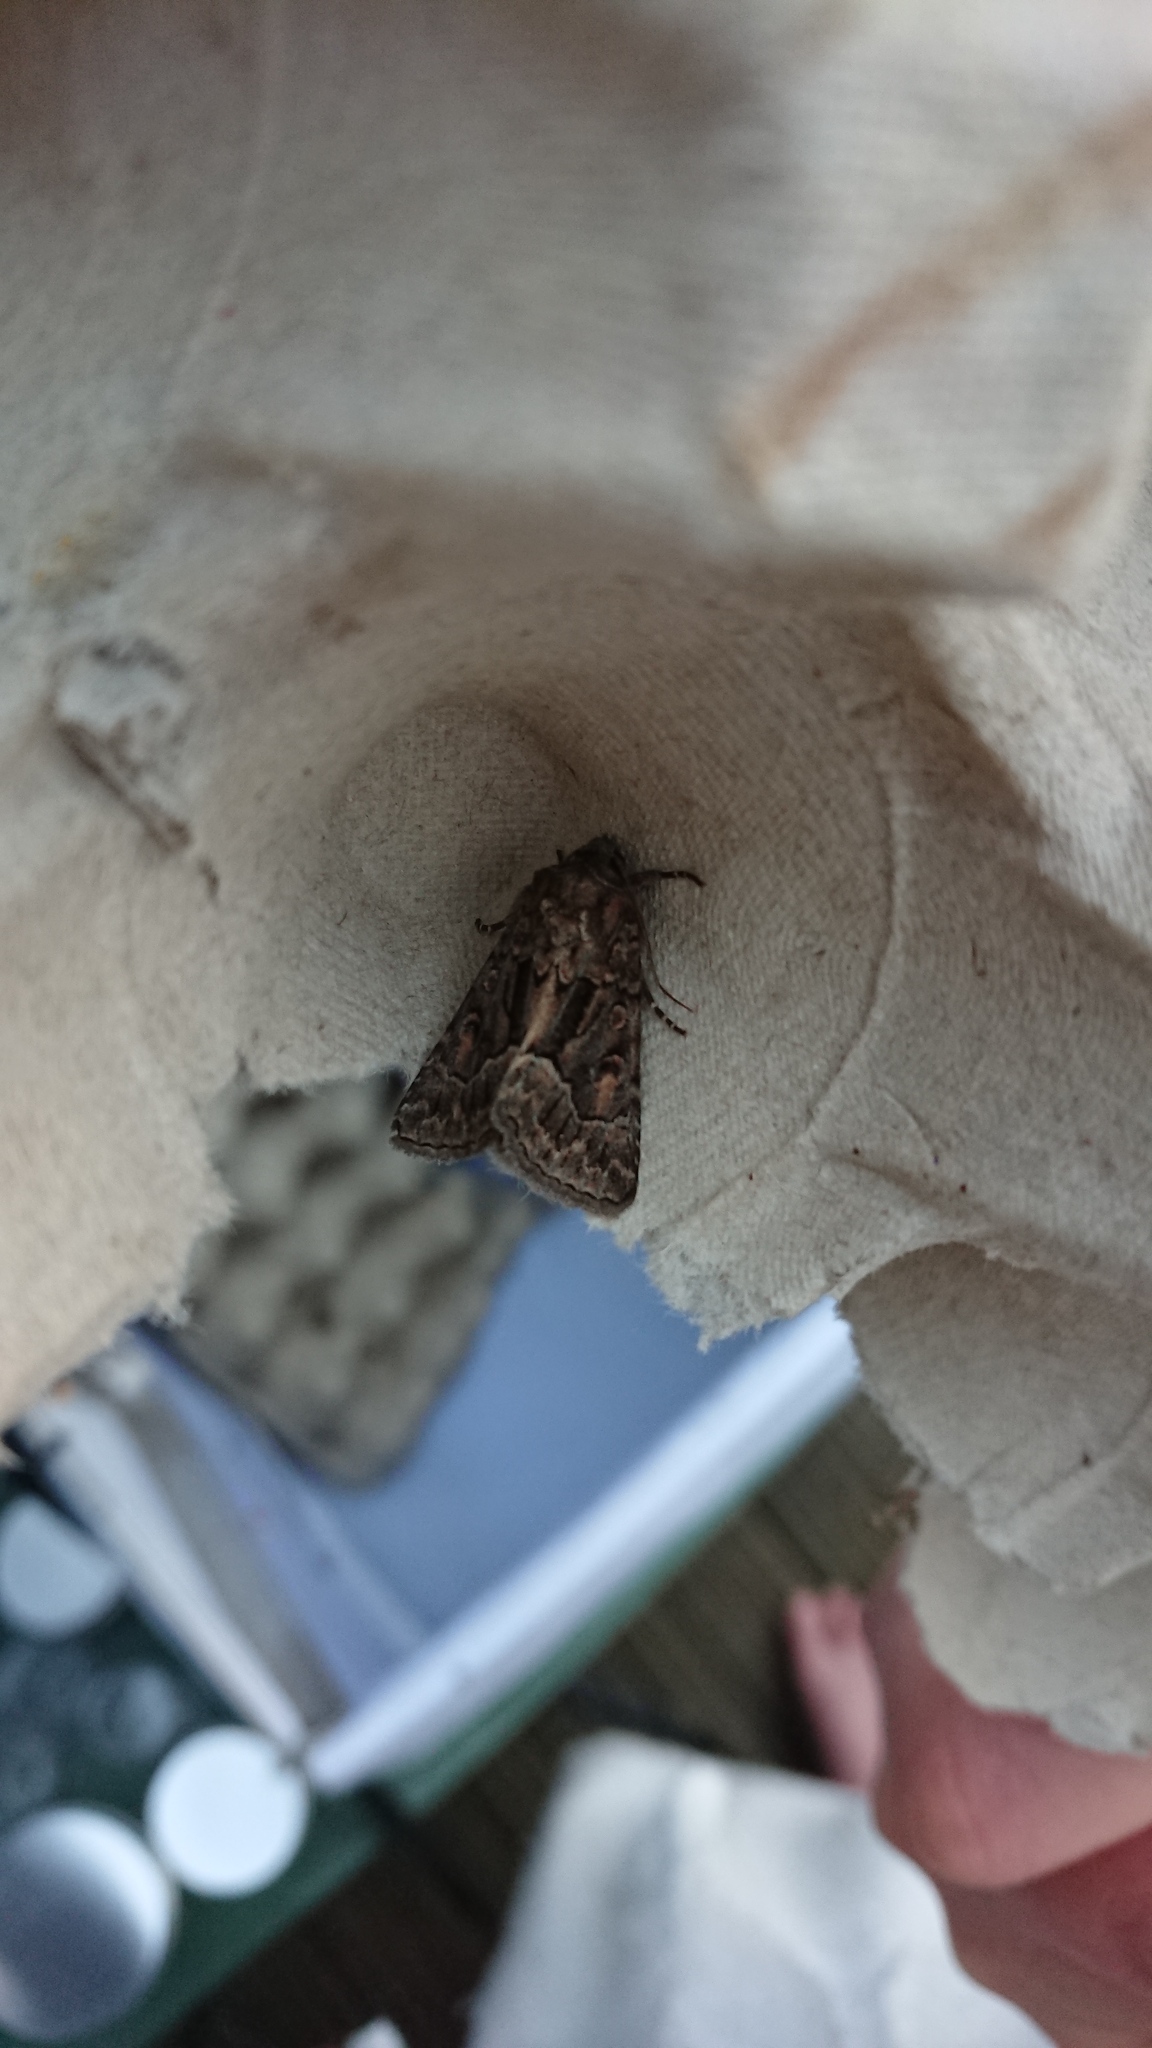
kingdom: Animalia
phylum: Arthropoda
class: Insecta
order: Lepidoptera
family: Noctuidae
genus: Thalpophila
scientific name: Thalpophila matura
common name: Straw underwing
